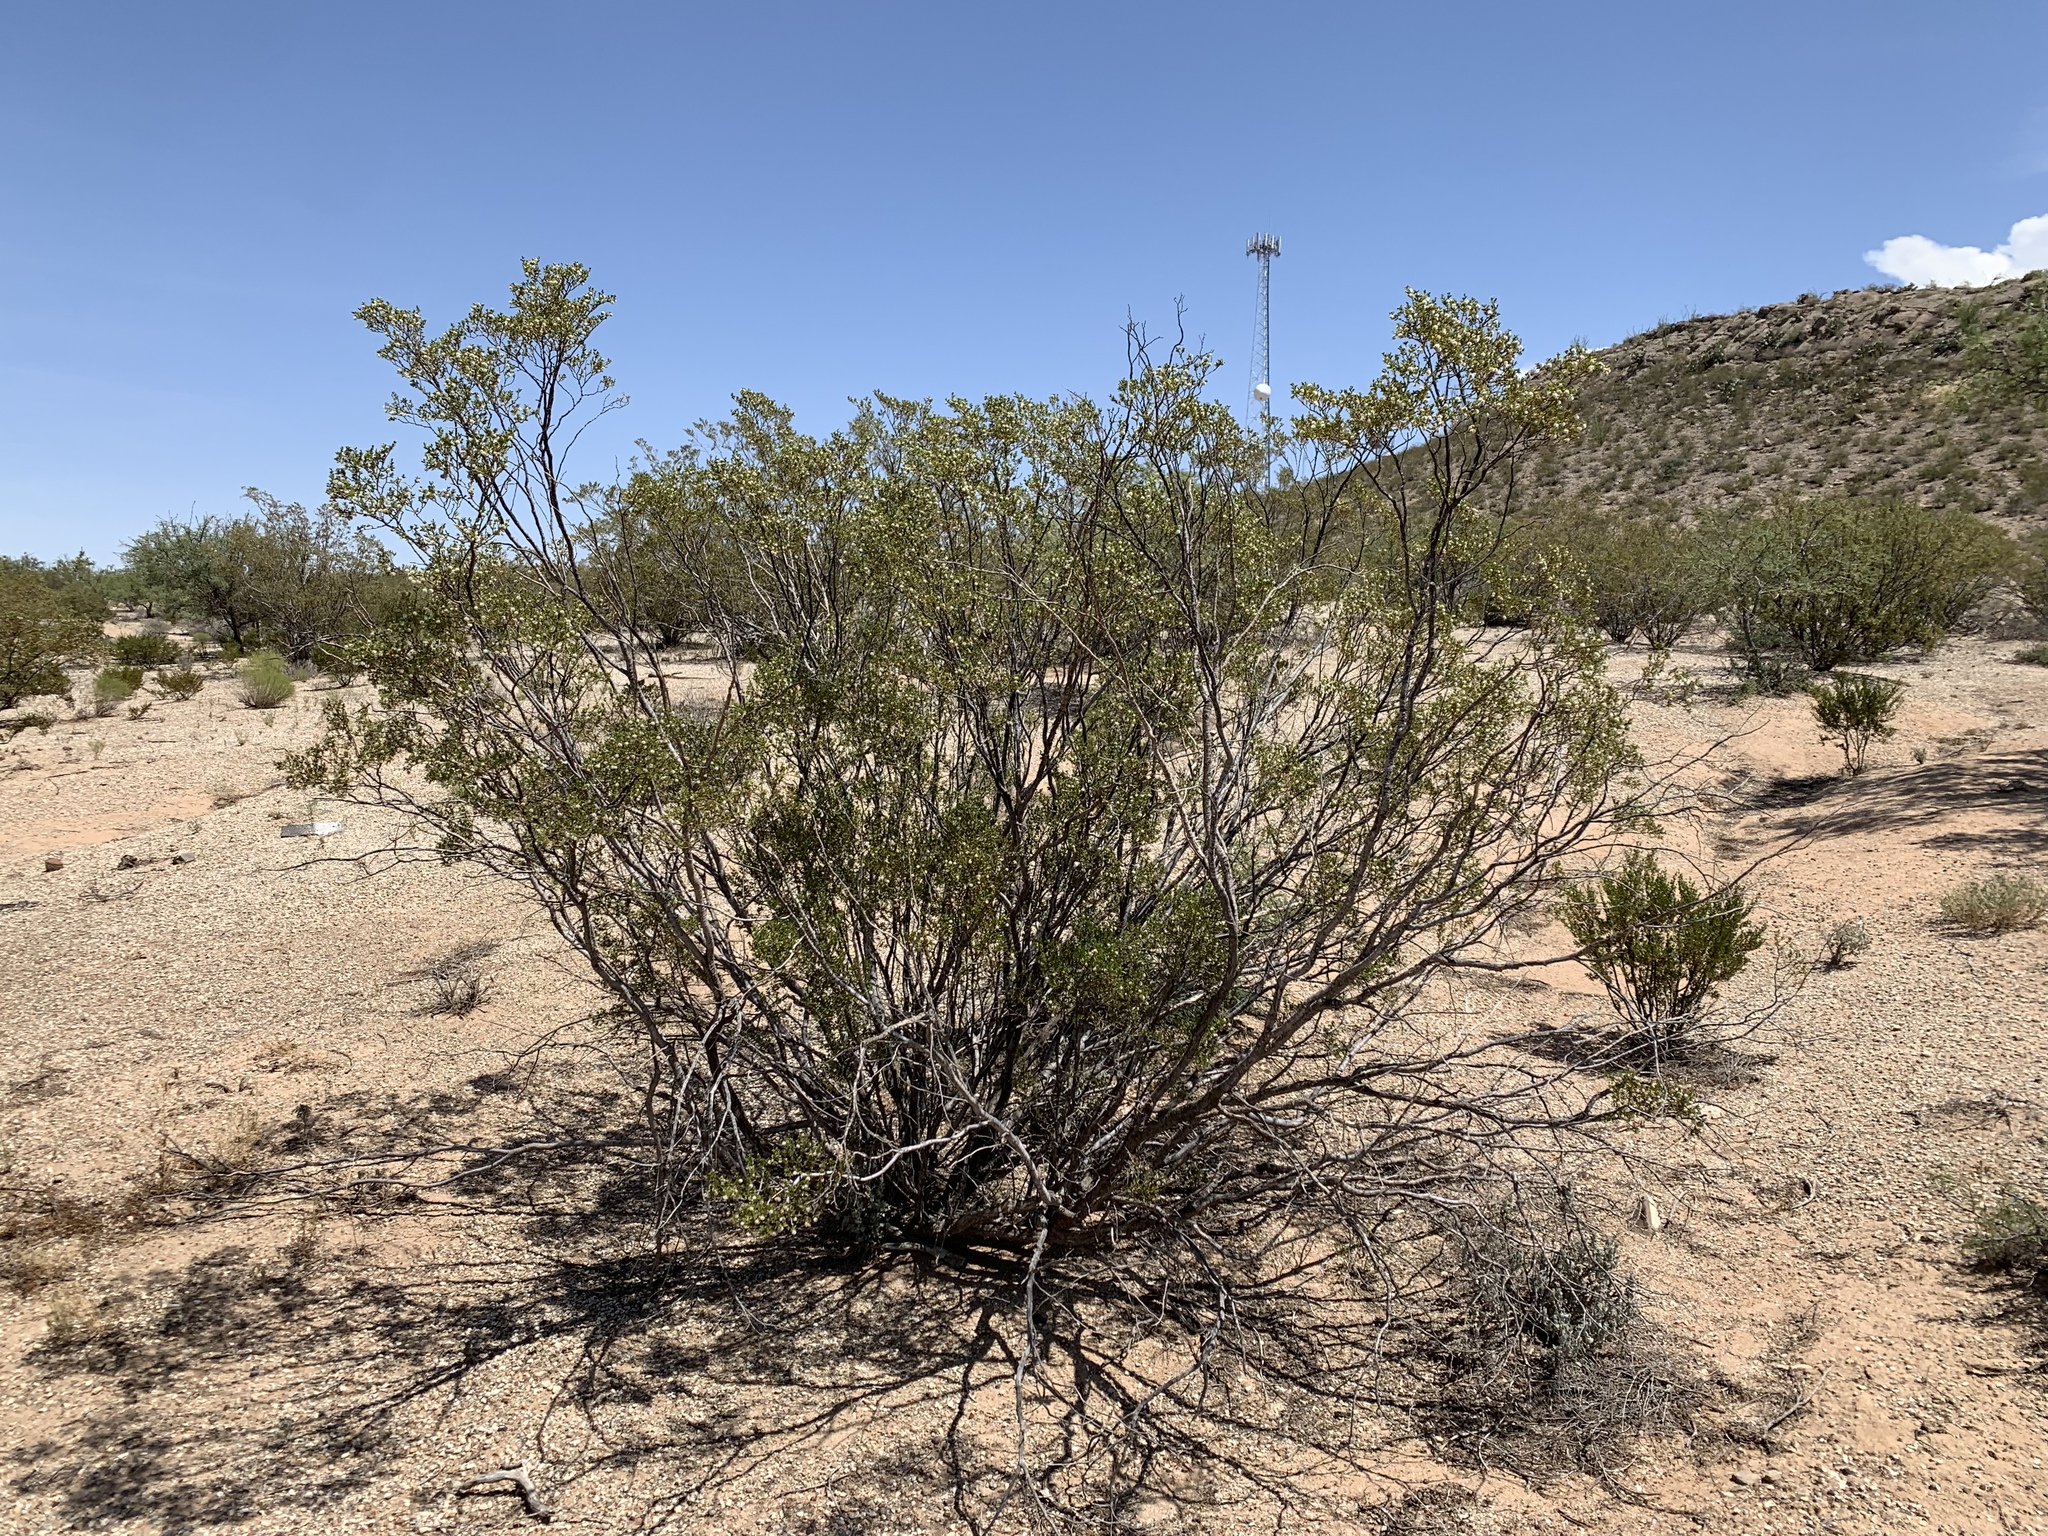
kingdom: Plantae
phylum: Tracheophyta
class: Magnoliopsida
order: Zygophyllales
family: Zygophyllaceae
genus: Larrea
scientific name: Larrea tridentata
